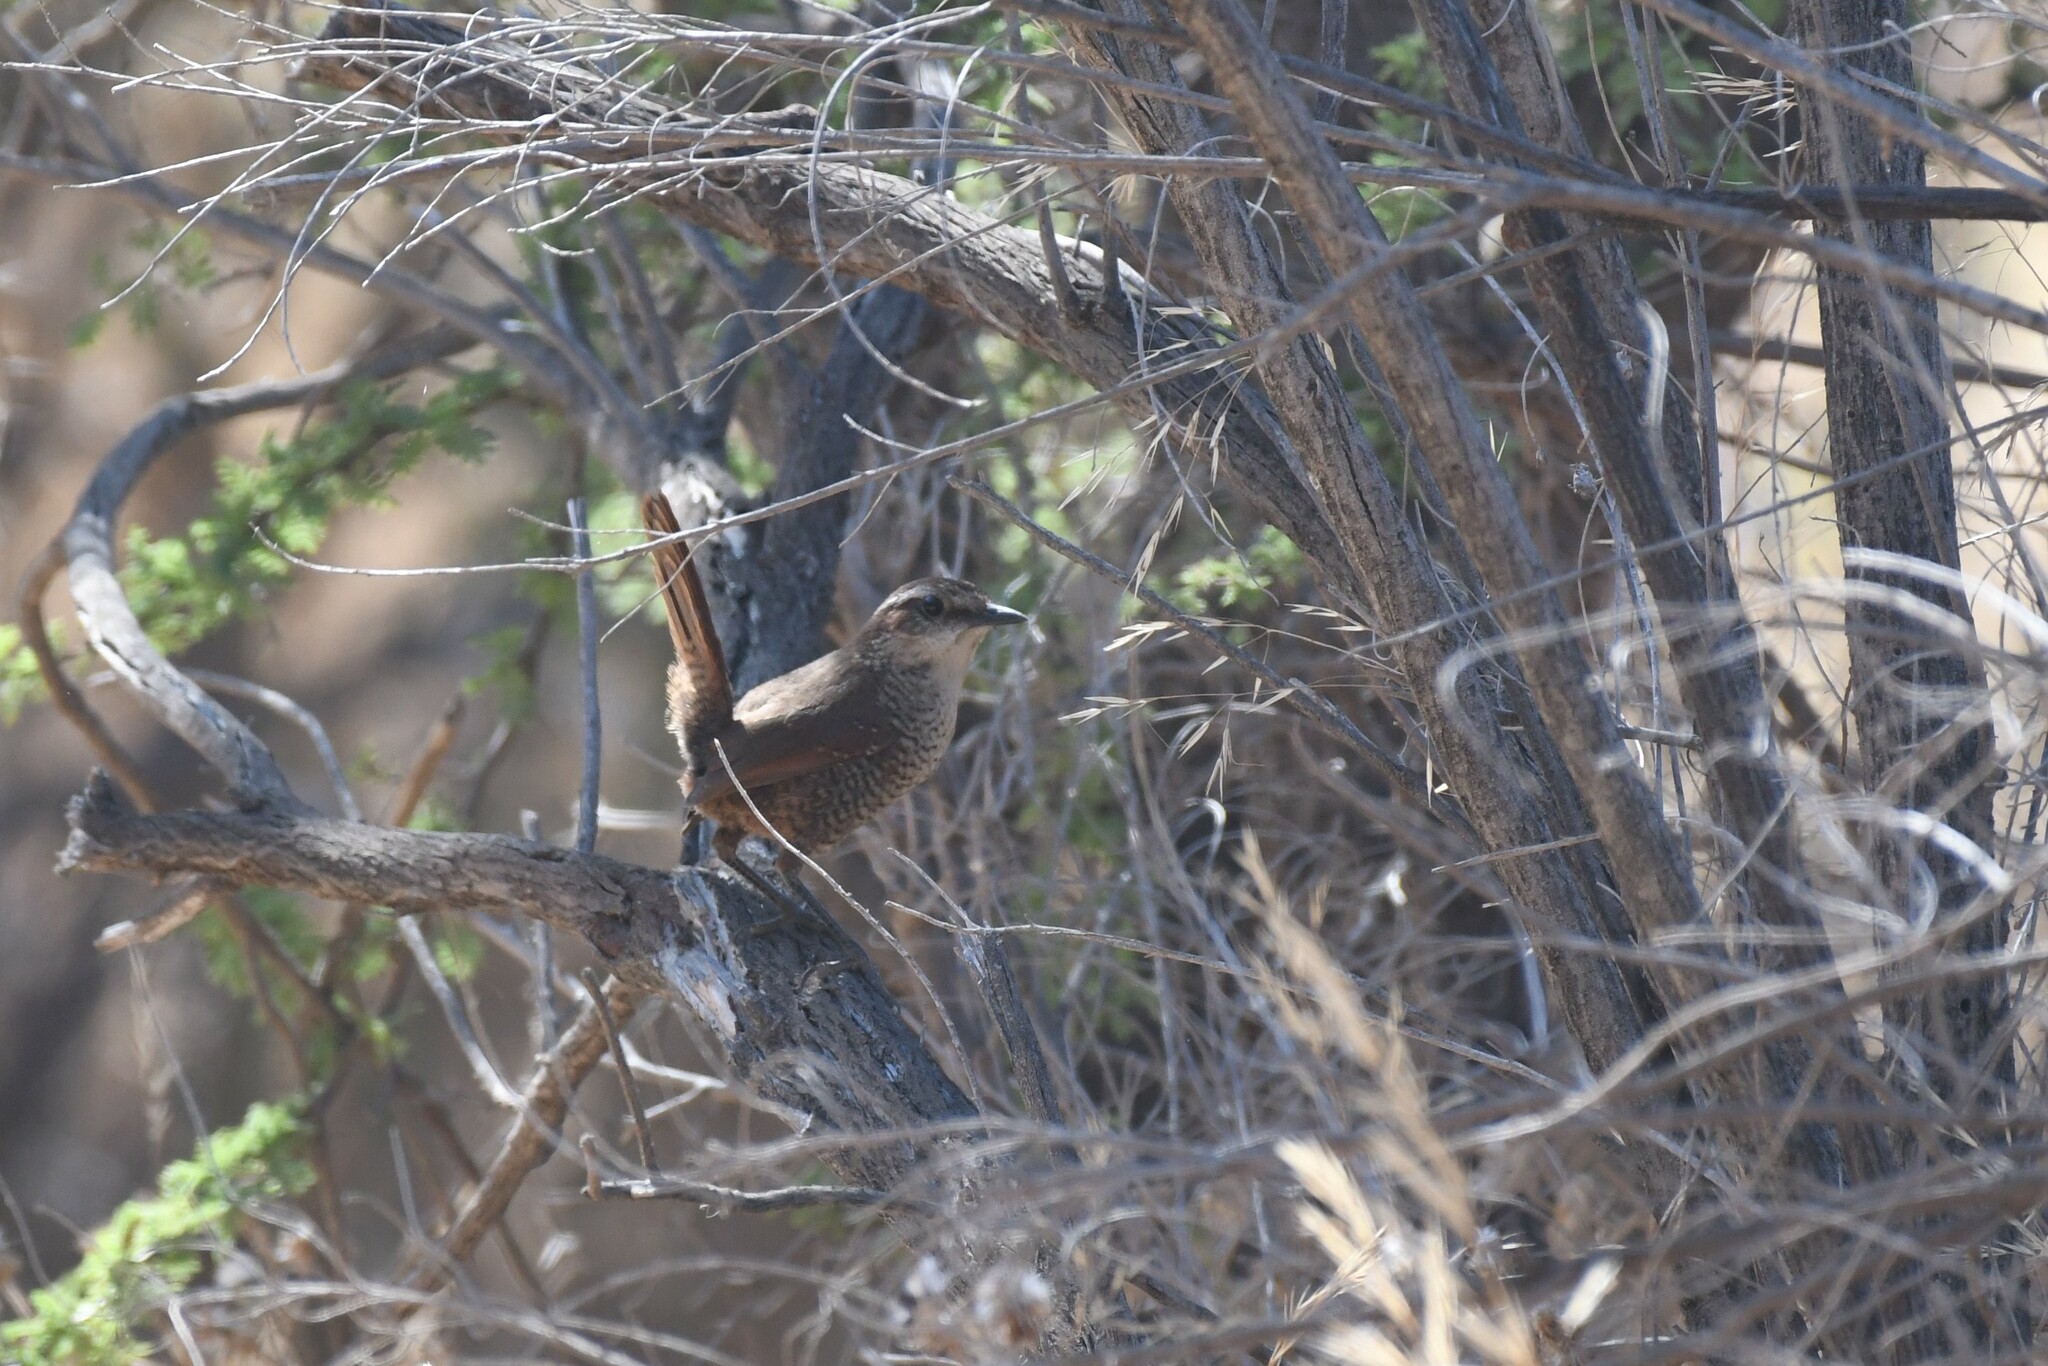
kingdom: Animalia
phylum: Chordata
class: Aves
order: Passeriformes
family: Rhinocryptidae
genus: Scelorchilus
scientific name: Scelorchilus albicollis
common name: White-throated tapaculo
